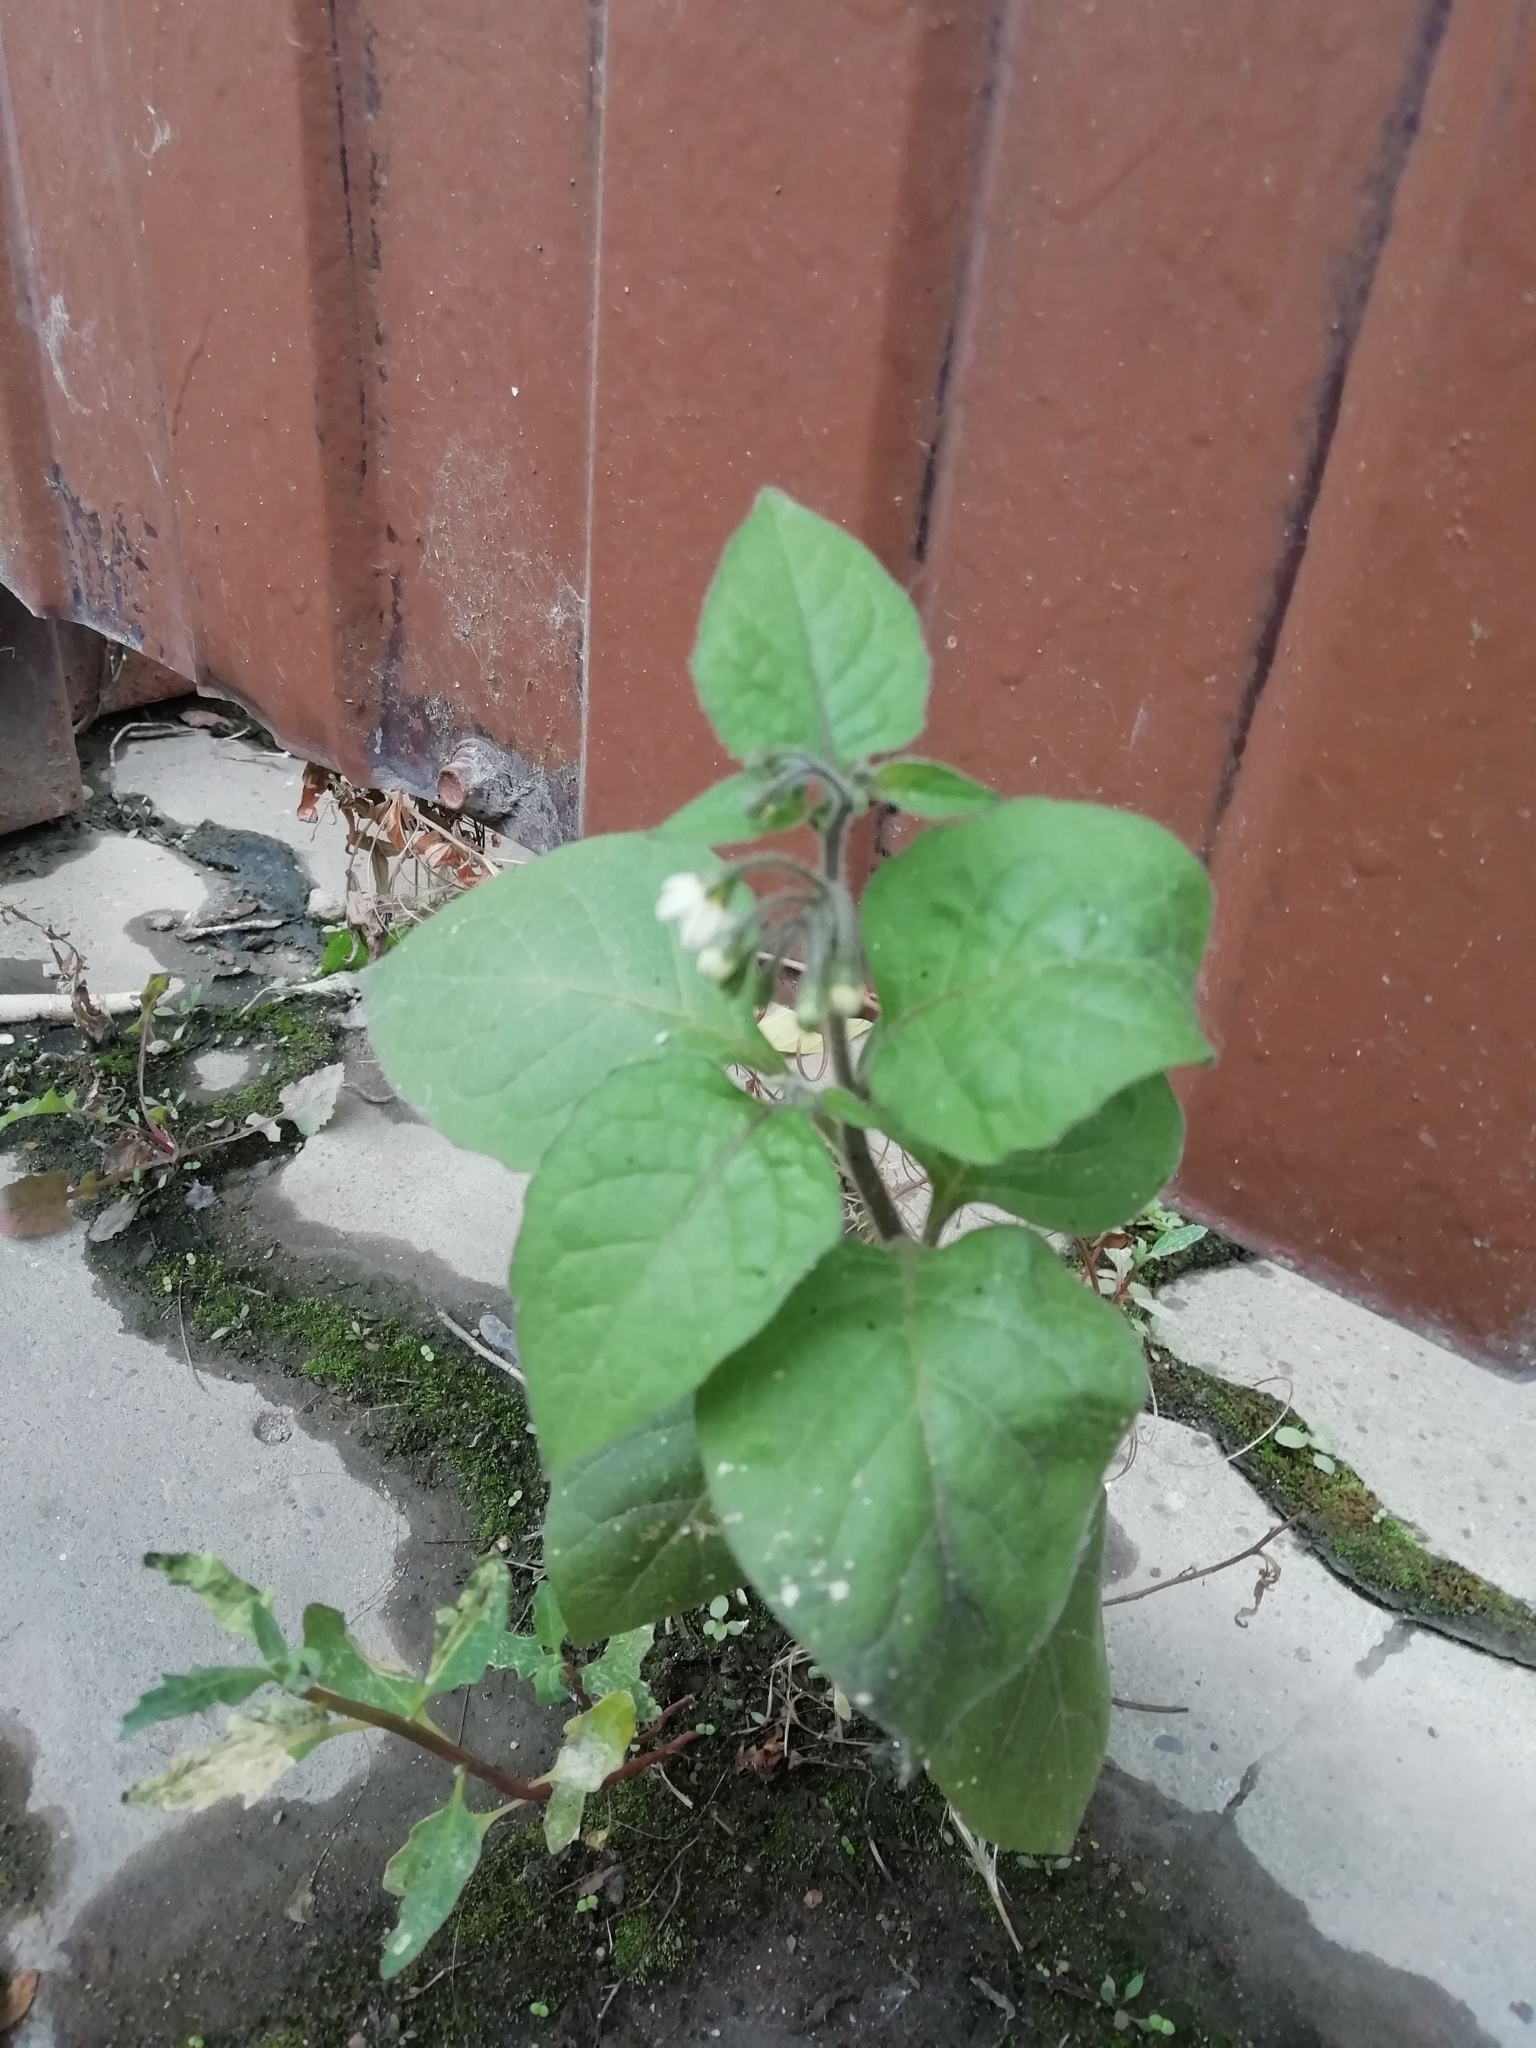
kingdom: Plantae
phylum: Tracheophyta
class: Magnoliopsida
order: Solanales
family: Solanaceae
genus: Solanum
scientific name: Solanum nigrum
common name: Black nightshade
